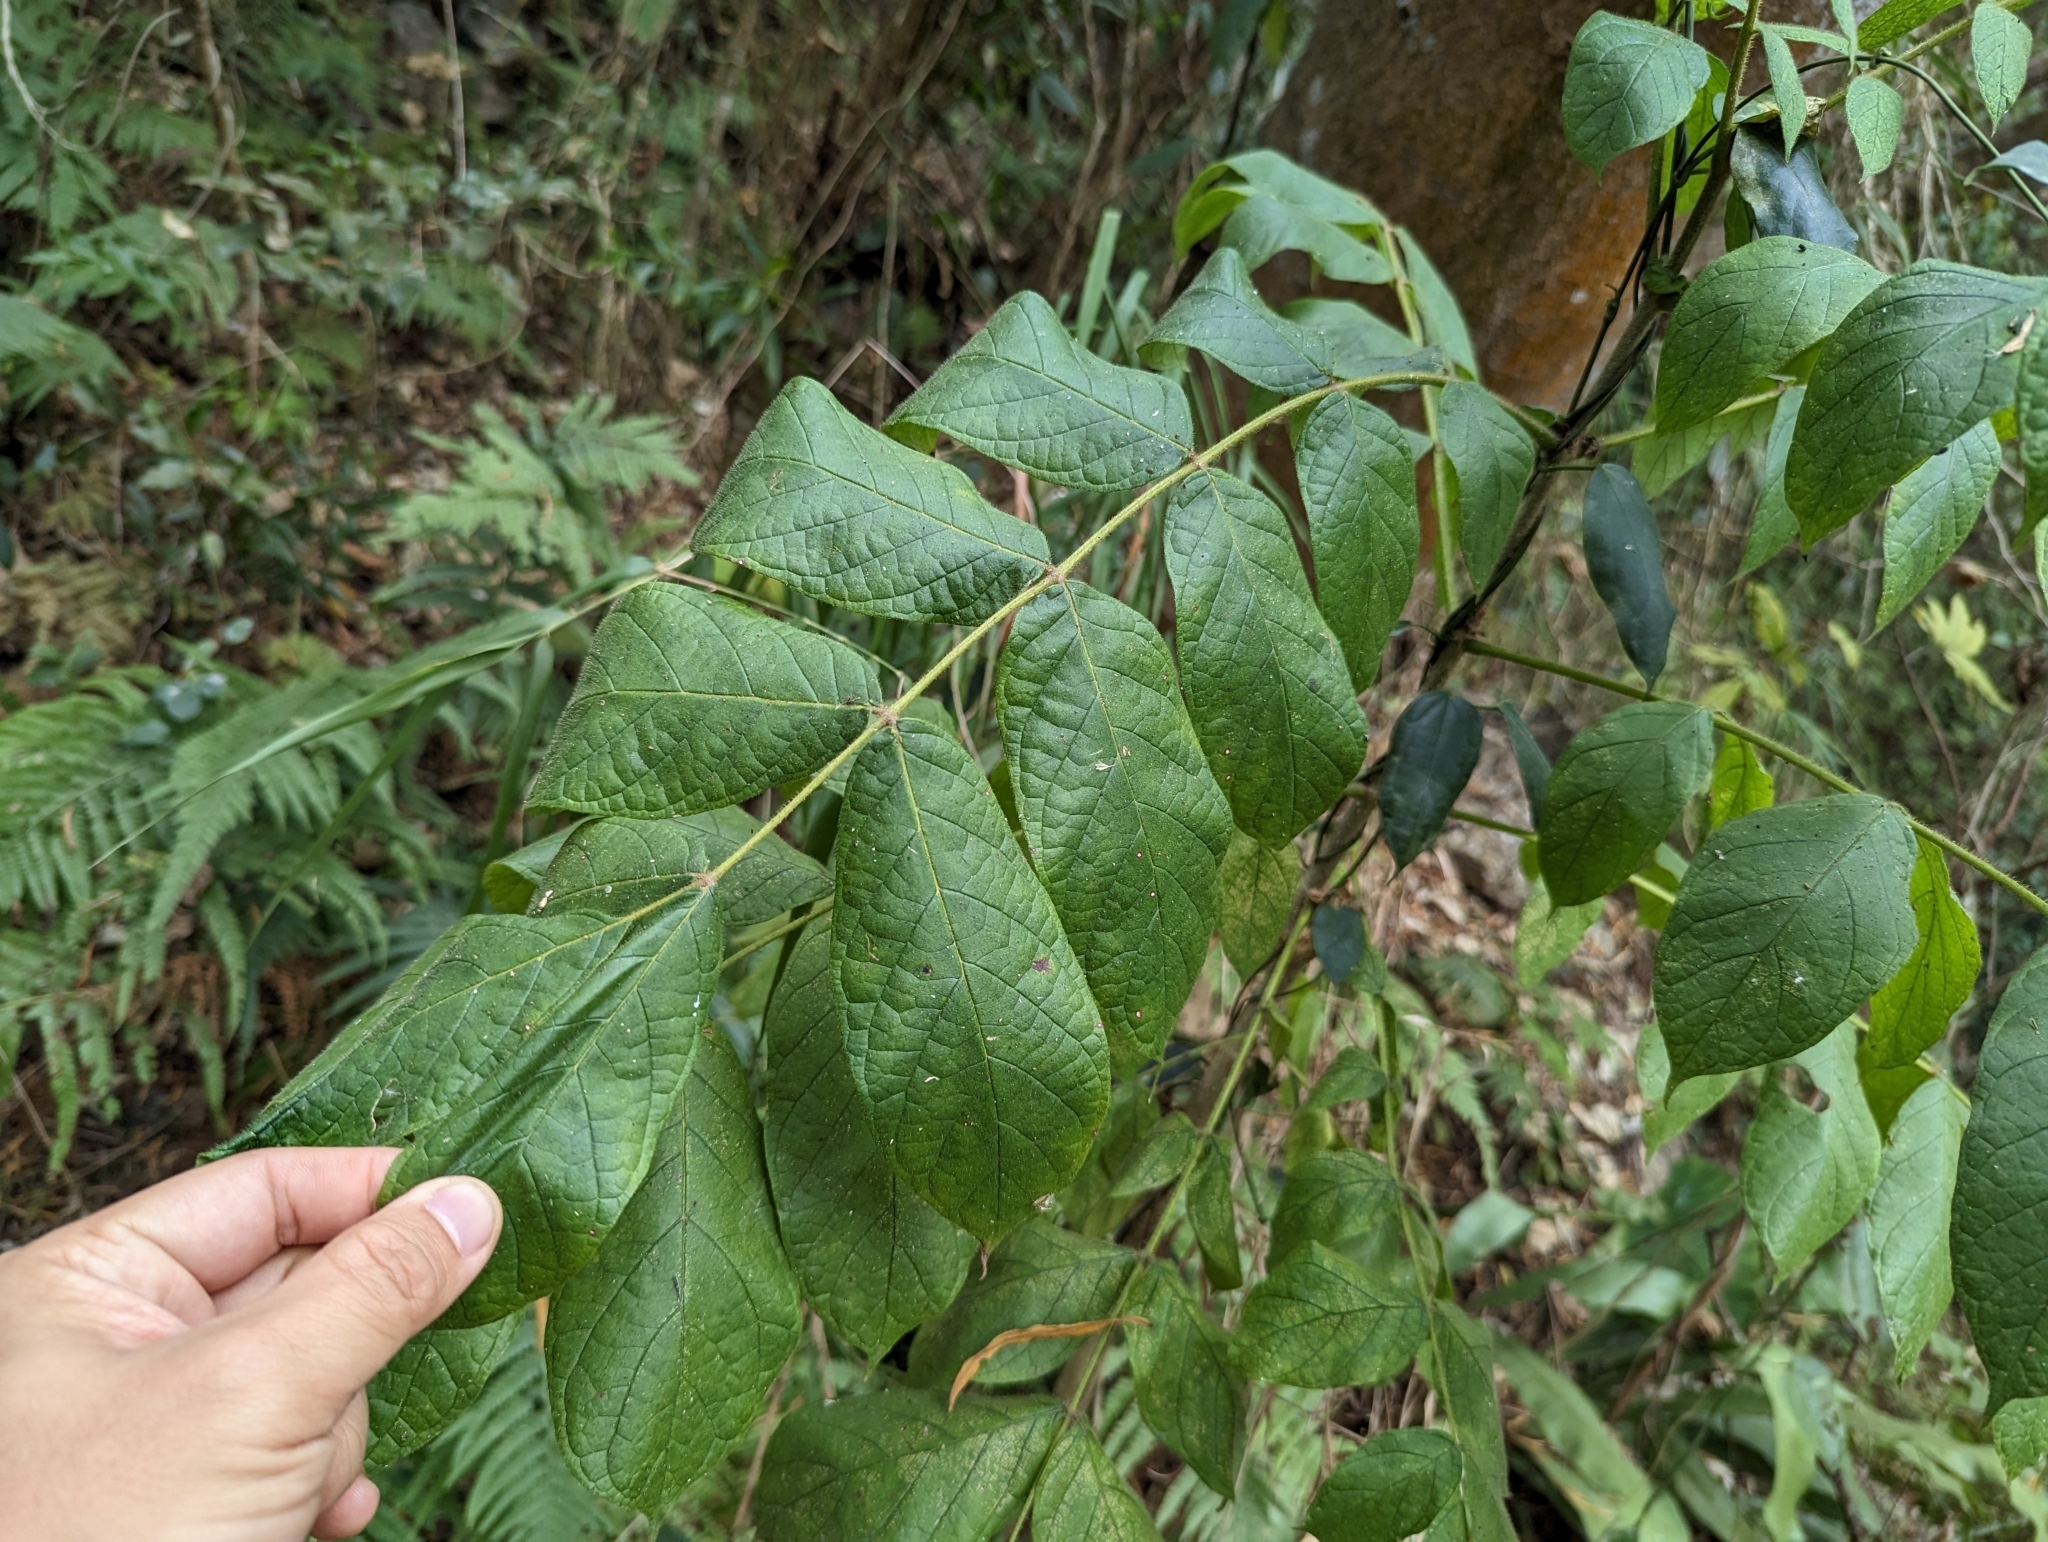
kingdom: Plantae
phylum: Tracheophyta
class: Magnoliopsida
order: Lamiales
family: Bignoniaceae
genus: Spathodea
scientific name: Spathodea campanulata
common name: African tuliptree
